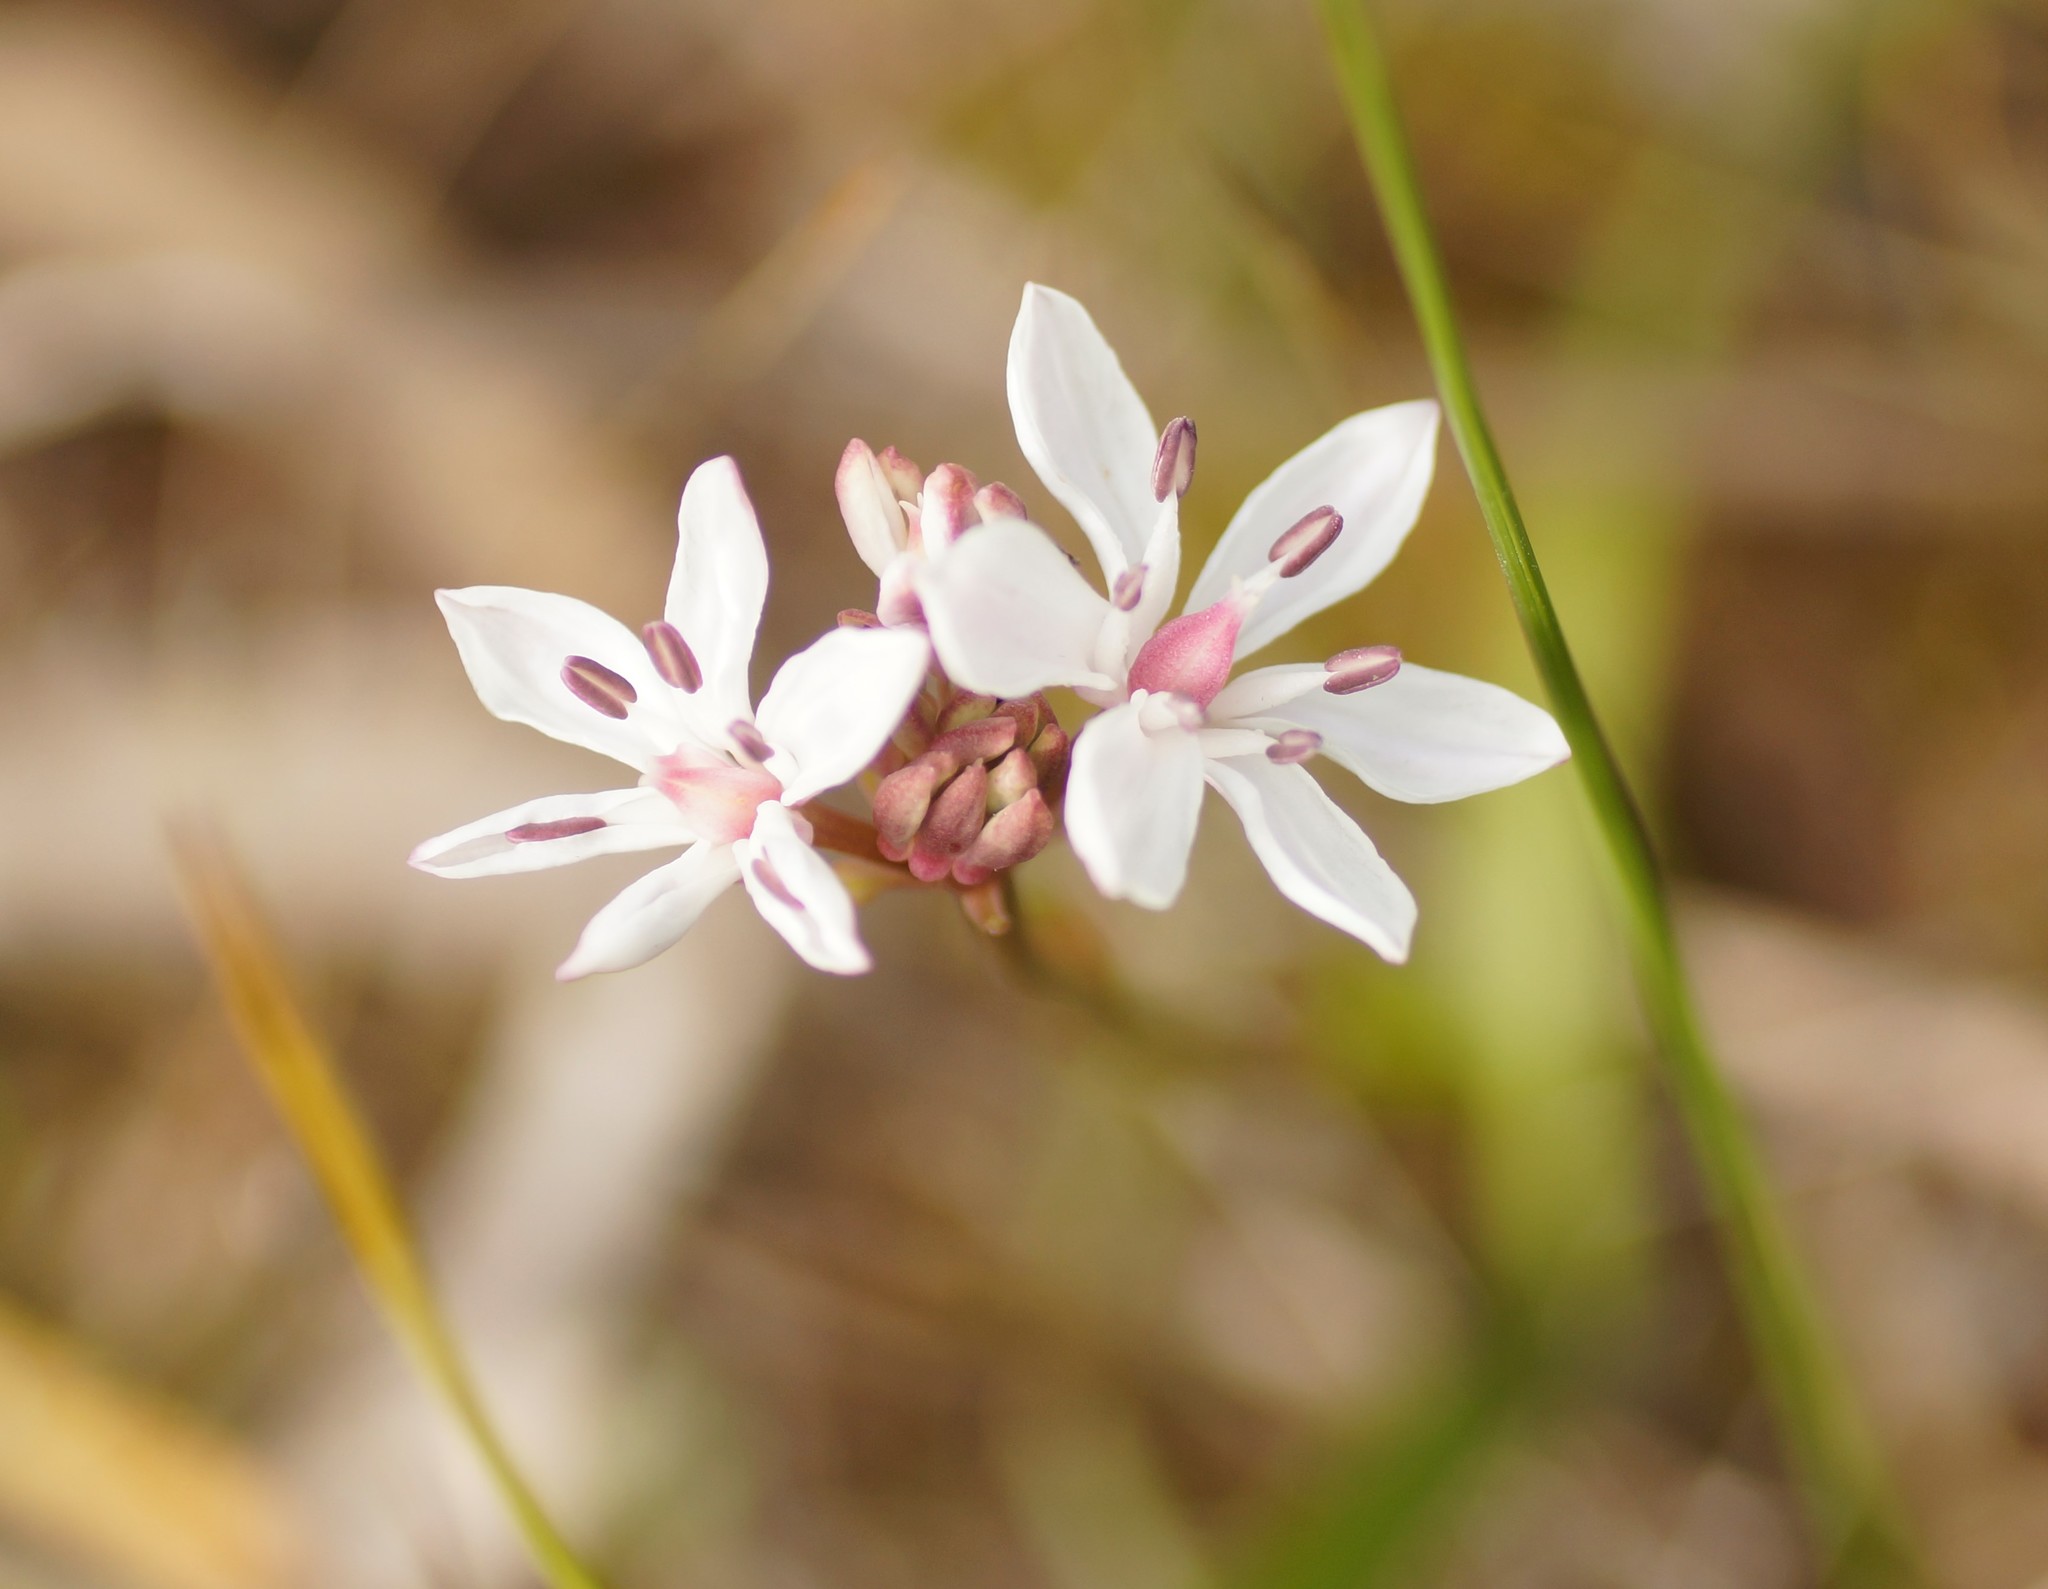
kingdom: Plantae
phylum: Tracheophyta
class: Liliopsida
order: Liliales
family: Colchicaceae
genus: Burchardia
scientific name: Burchardia umbellata
